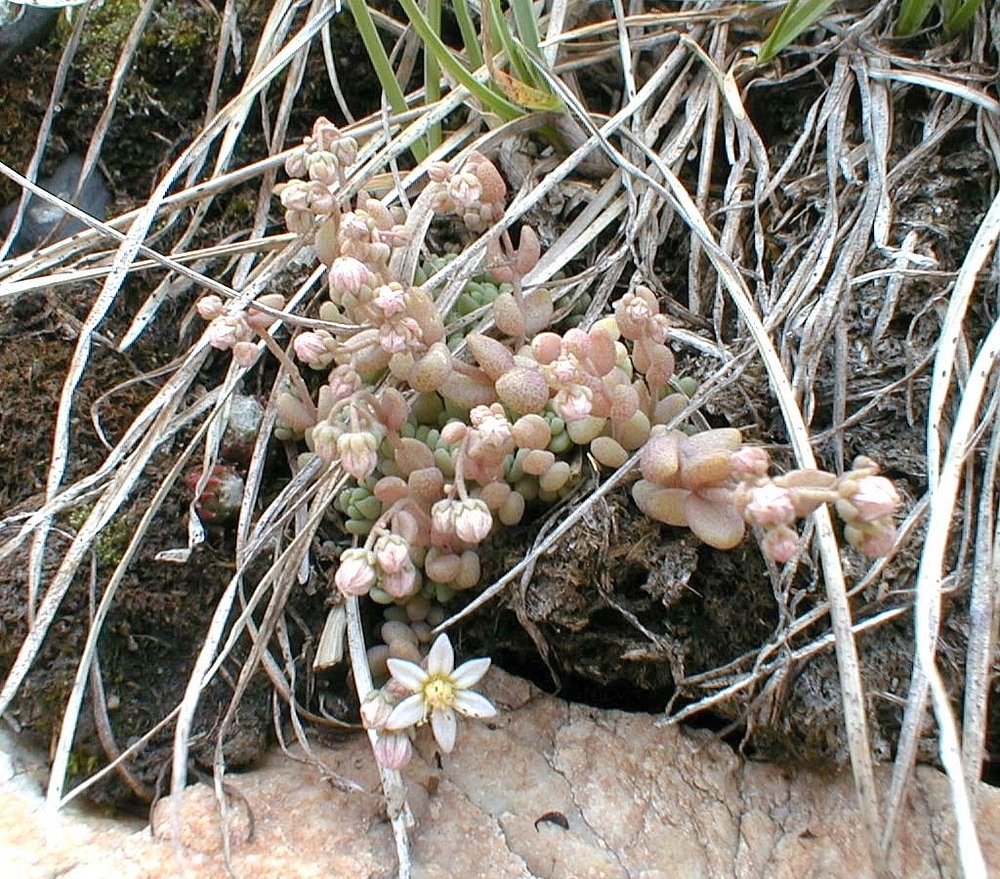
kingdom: Plantae
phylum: Tracheophyta
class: Magnoliopsida
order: Saxifragales
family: Crassulaceae
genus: Sedum
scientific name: Sedum dasyphyllum
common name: Thick-leaf stonecrop
